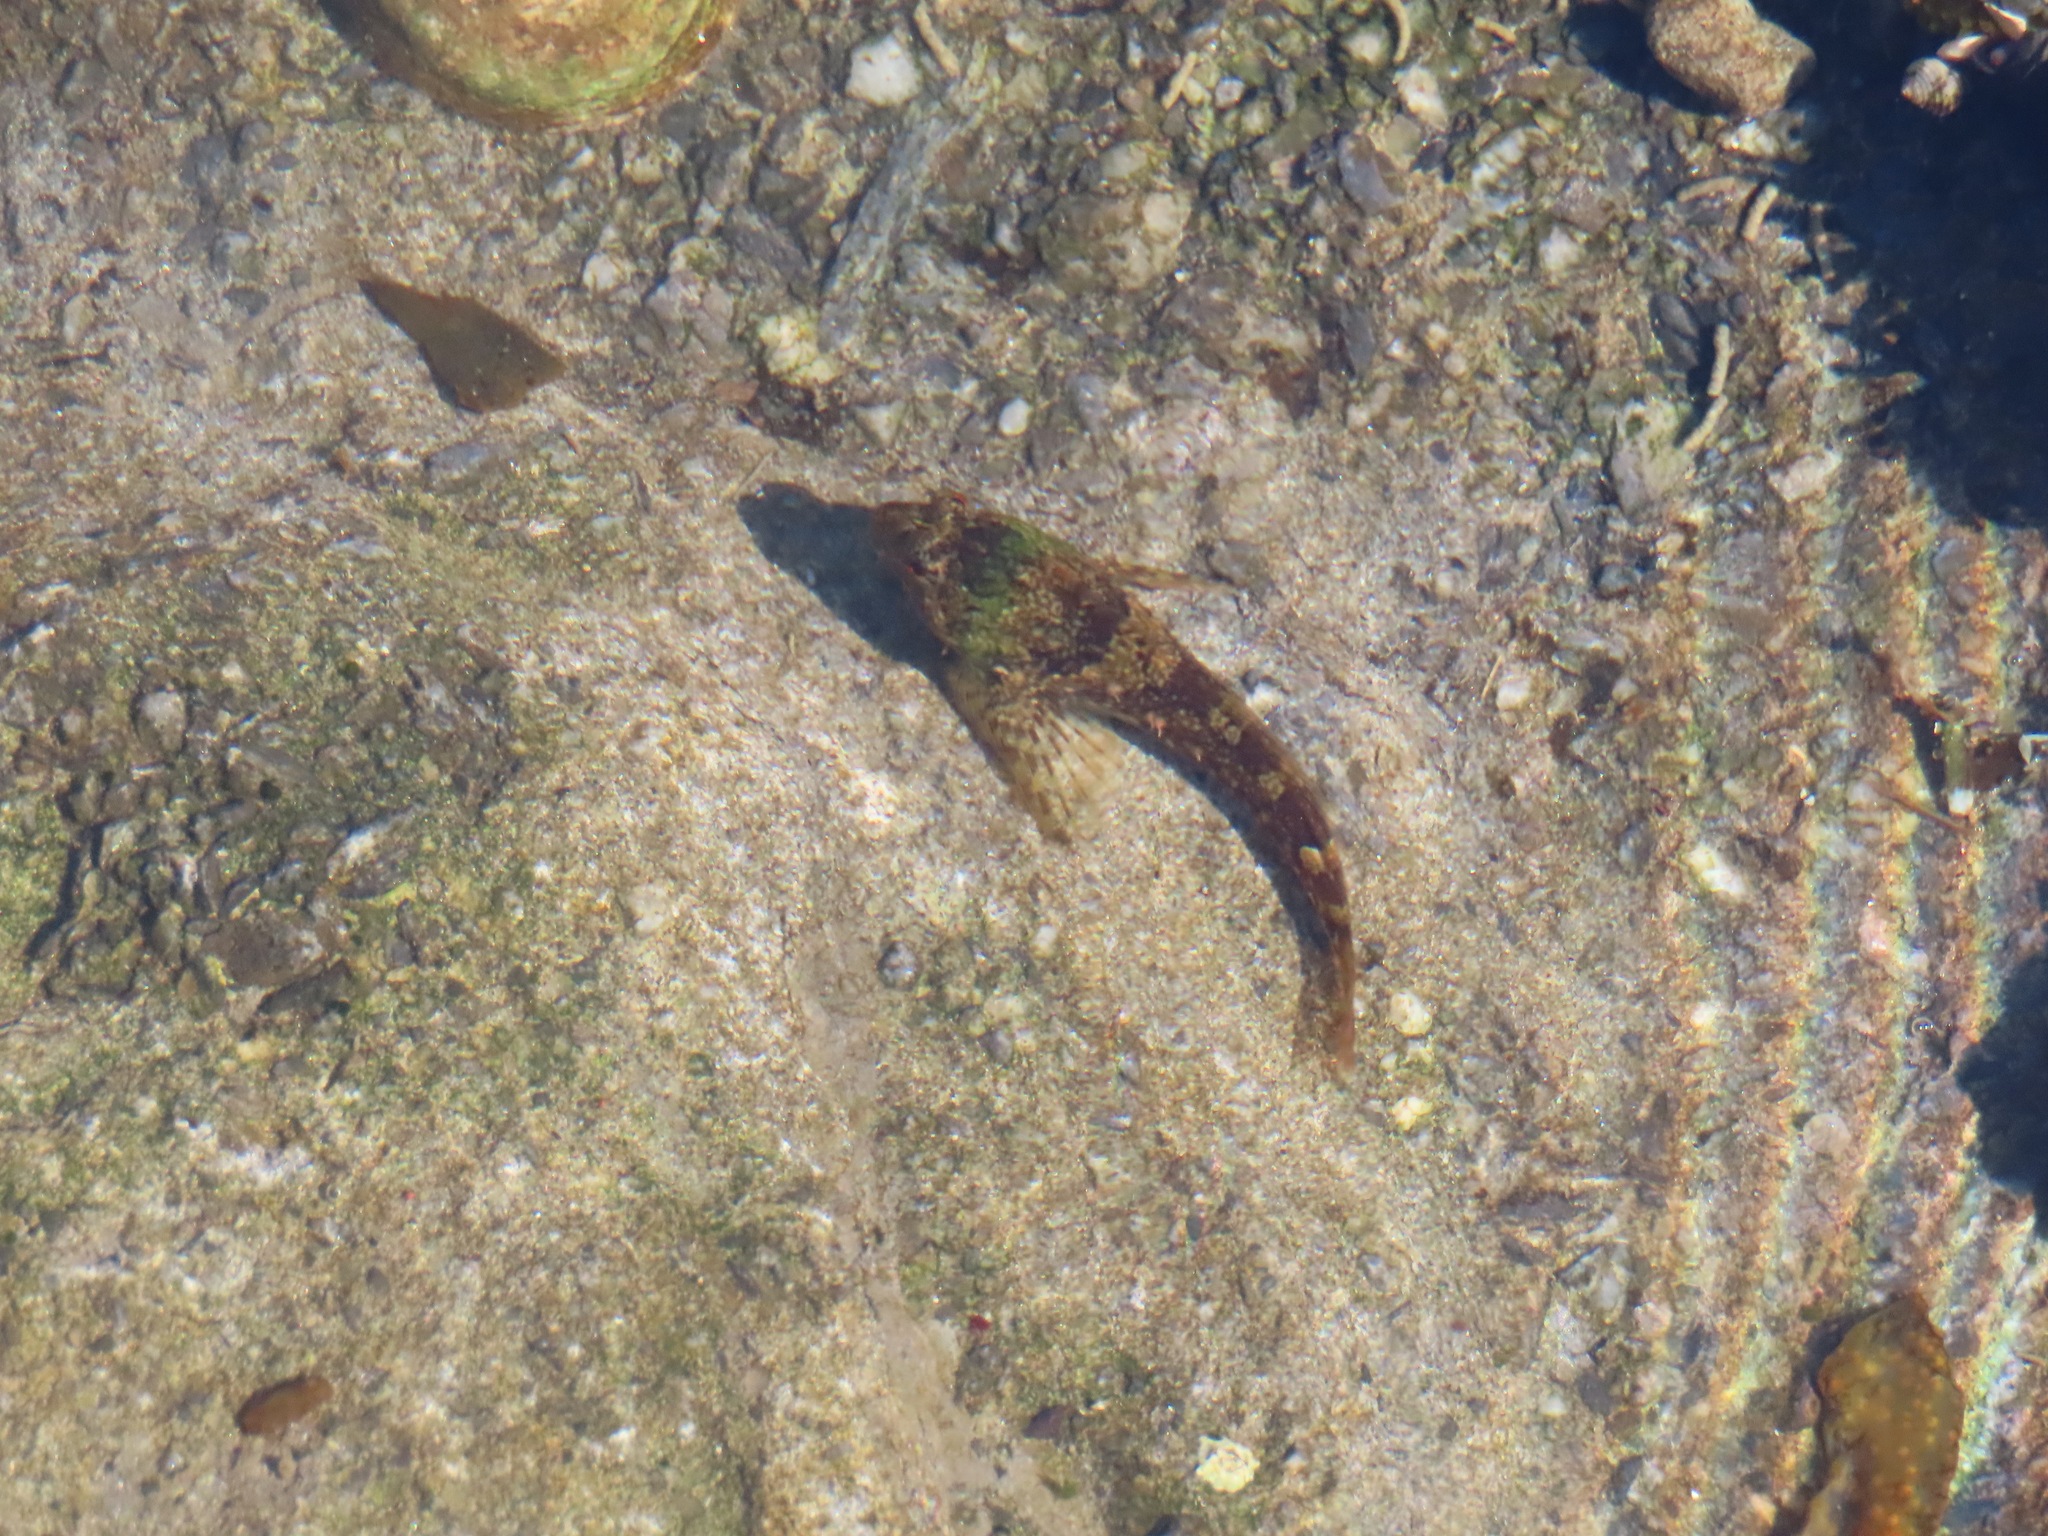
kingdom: Animalia
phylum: Chordata
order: Scorpaeniformes
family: Cottidae
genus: Oligocottus
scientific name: Oligocottus maculosus
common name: Tidepool sculpin
